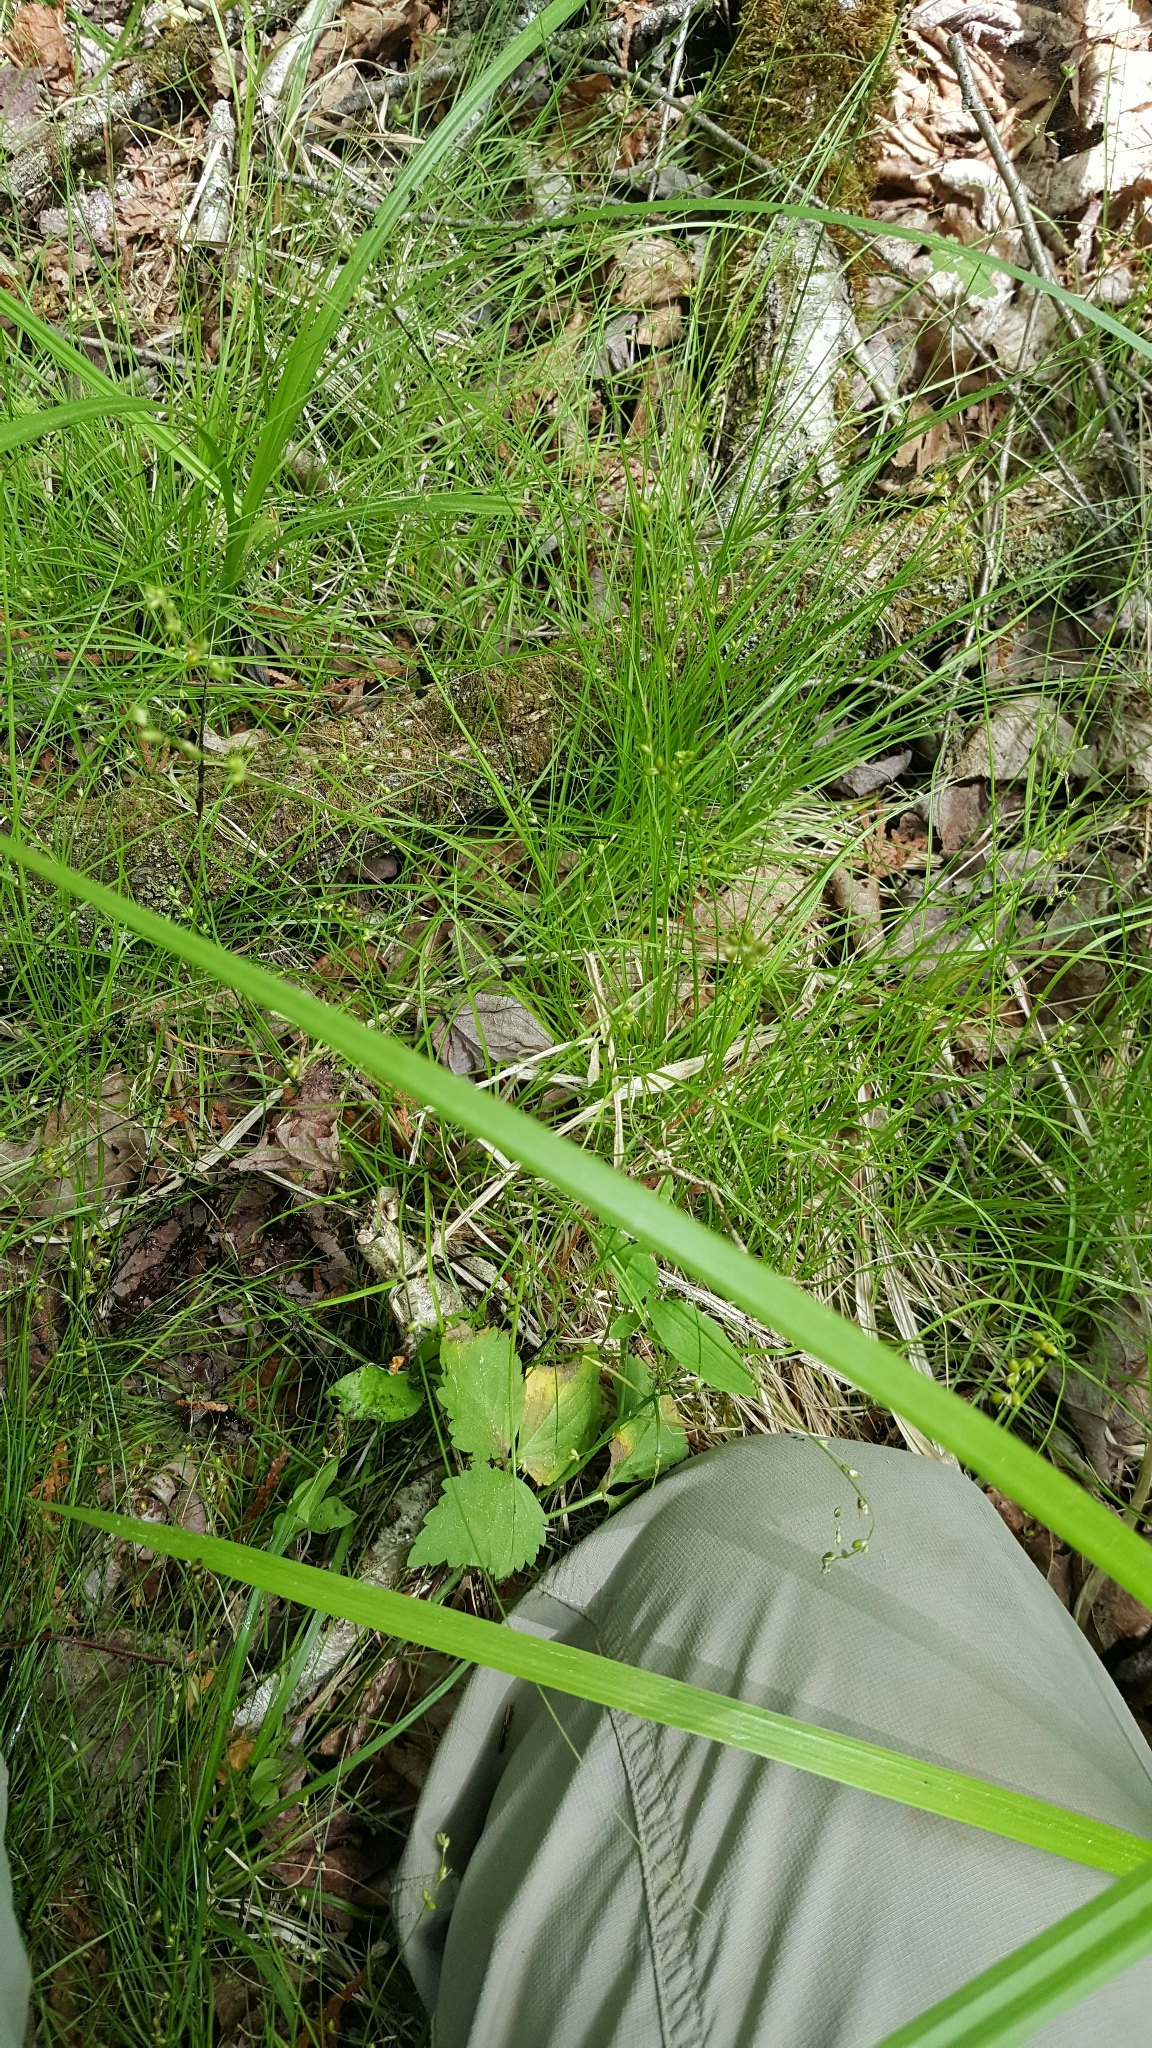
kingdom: Plantae
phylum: Tracheophyta
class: Liliopsida
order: Poales
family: Cyperaceae
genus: Carex
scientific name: Carex disperma
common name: Short-leaved sedge
